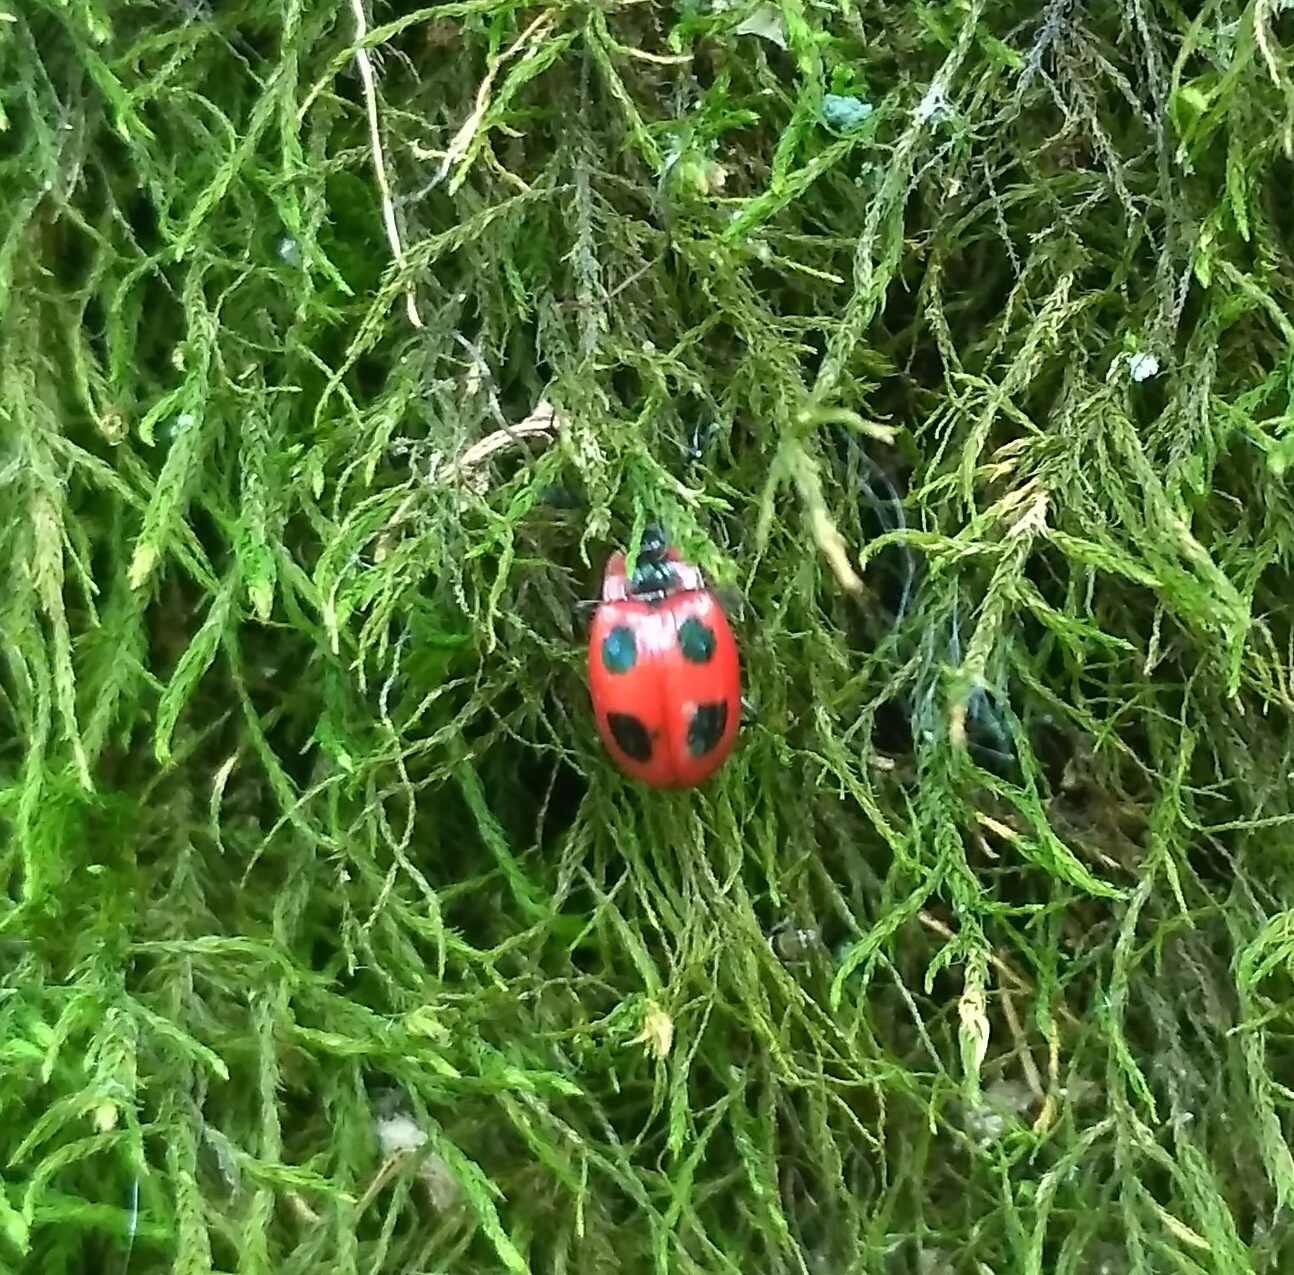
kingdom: Animalia
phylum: Arthropoda
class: Insecta
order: Coleoptera
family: Endomychidae
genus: Endomychus
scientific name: Endomychus coccineus
